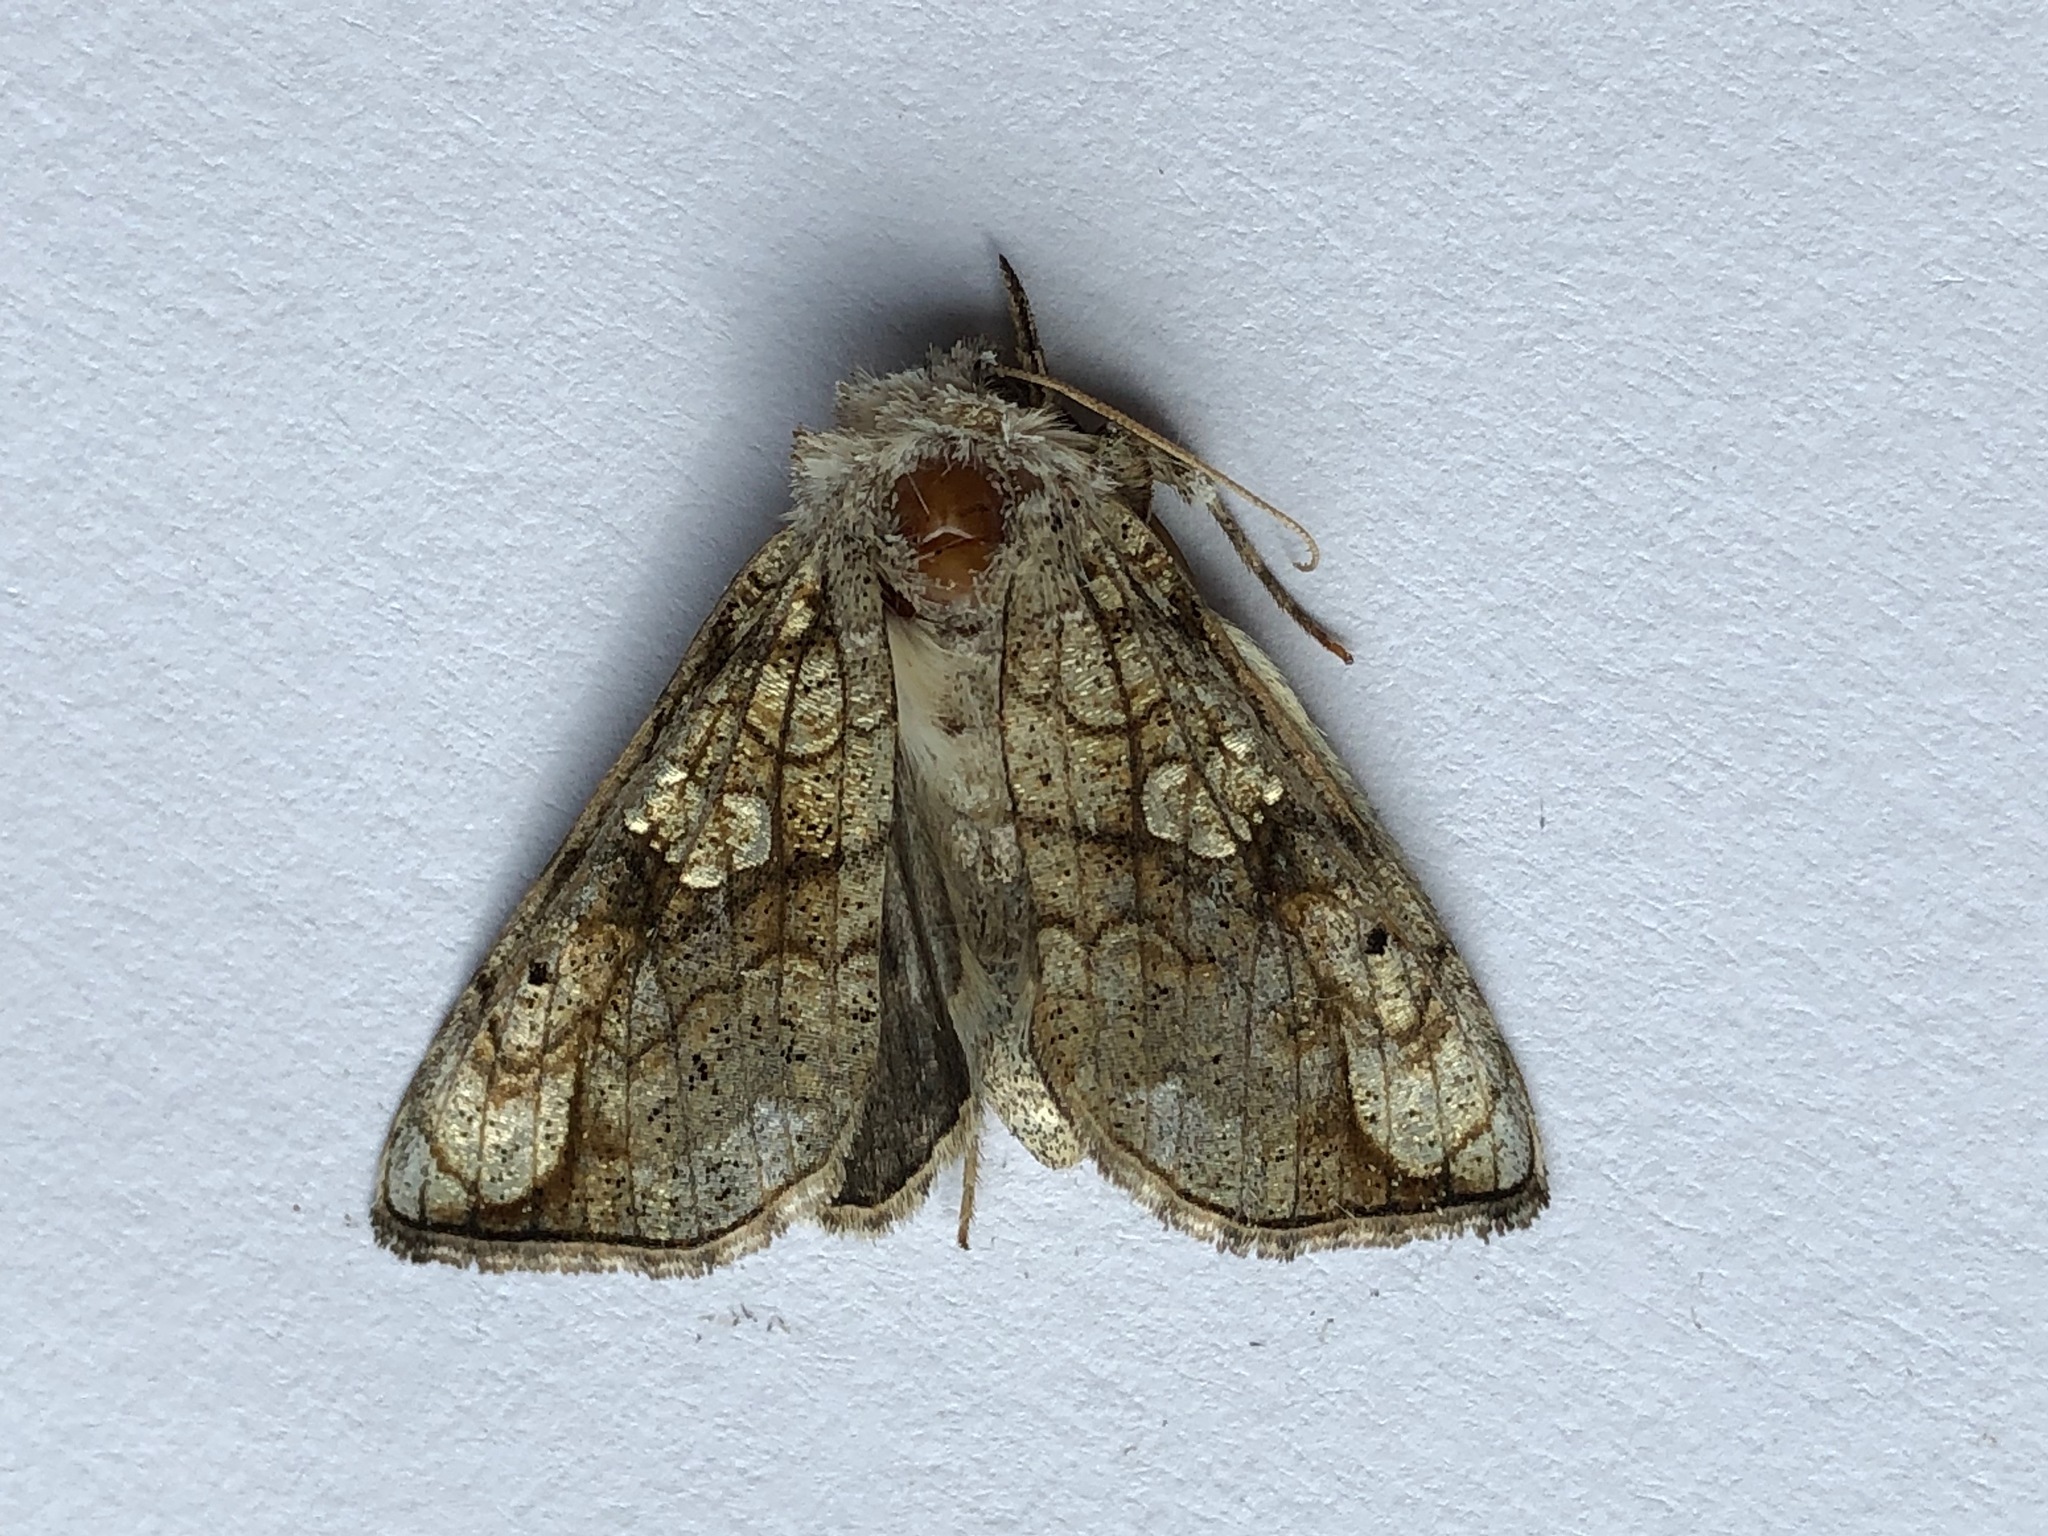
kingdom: Animalia
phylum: Arthropoda
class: Insecta
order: Lepidoptera
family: Noctuidae
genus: Polychrysia
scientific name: Polychrysia esmeralda
